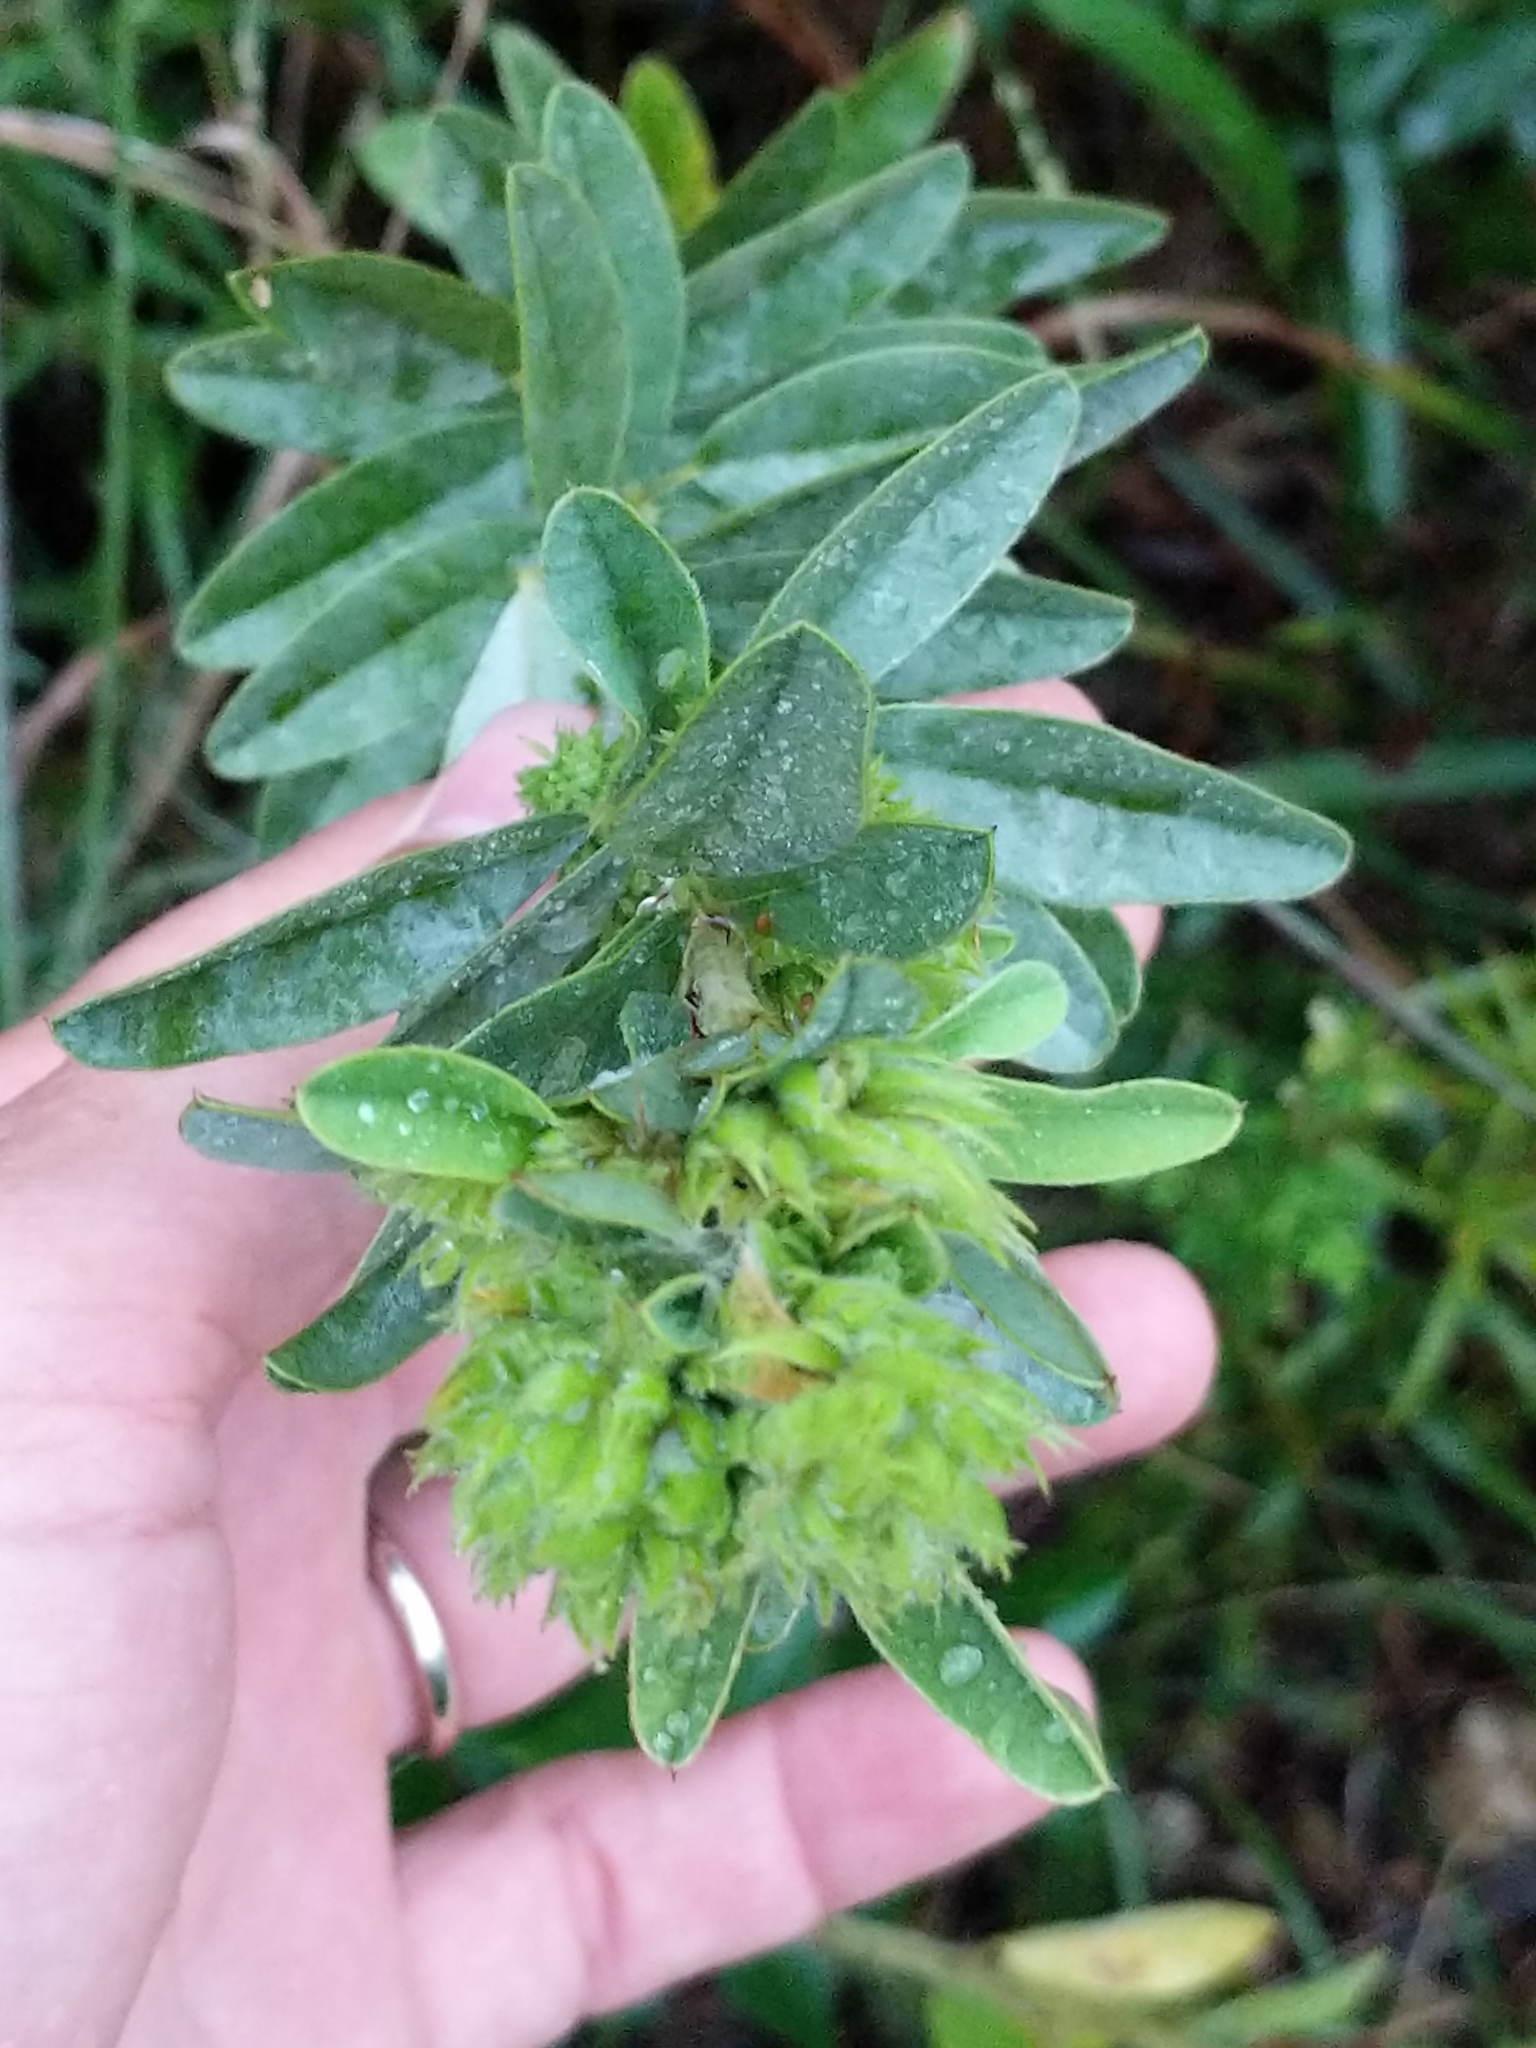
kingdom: Plantae
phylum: Tracheophyta
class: Magnoliopsida
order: Fabales
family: Fabaceae
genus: Lespedeza
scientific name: Lespedeza capitata
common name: Dusty clover
